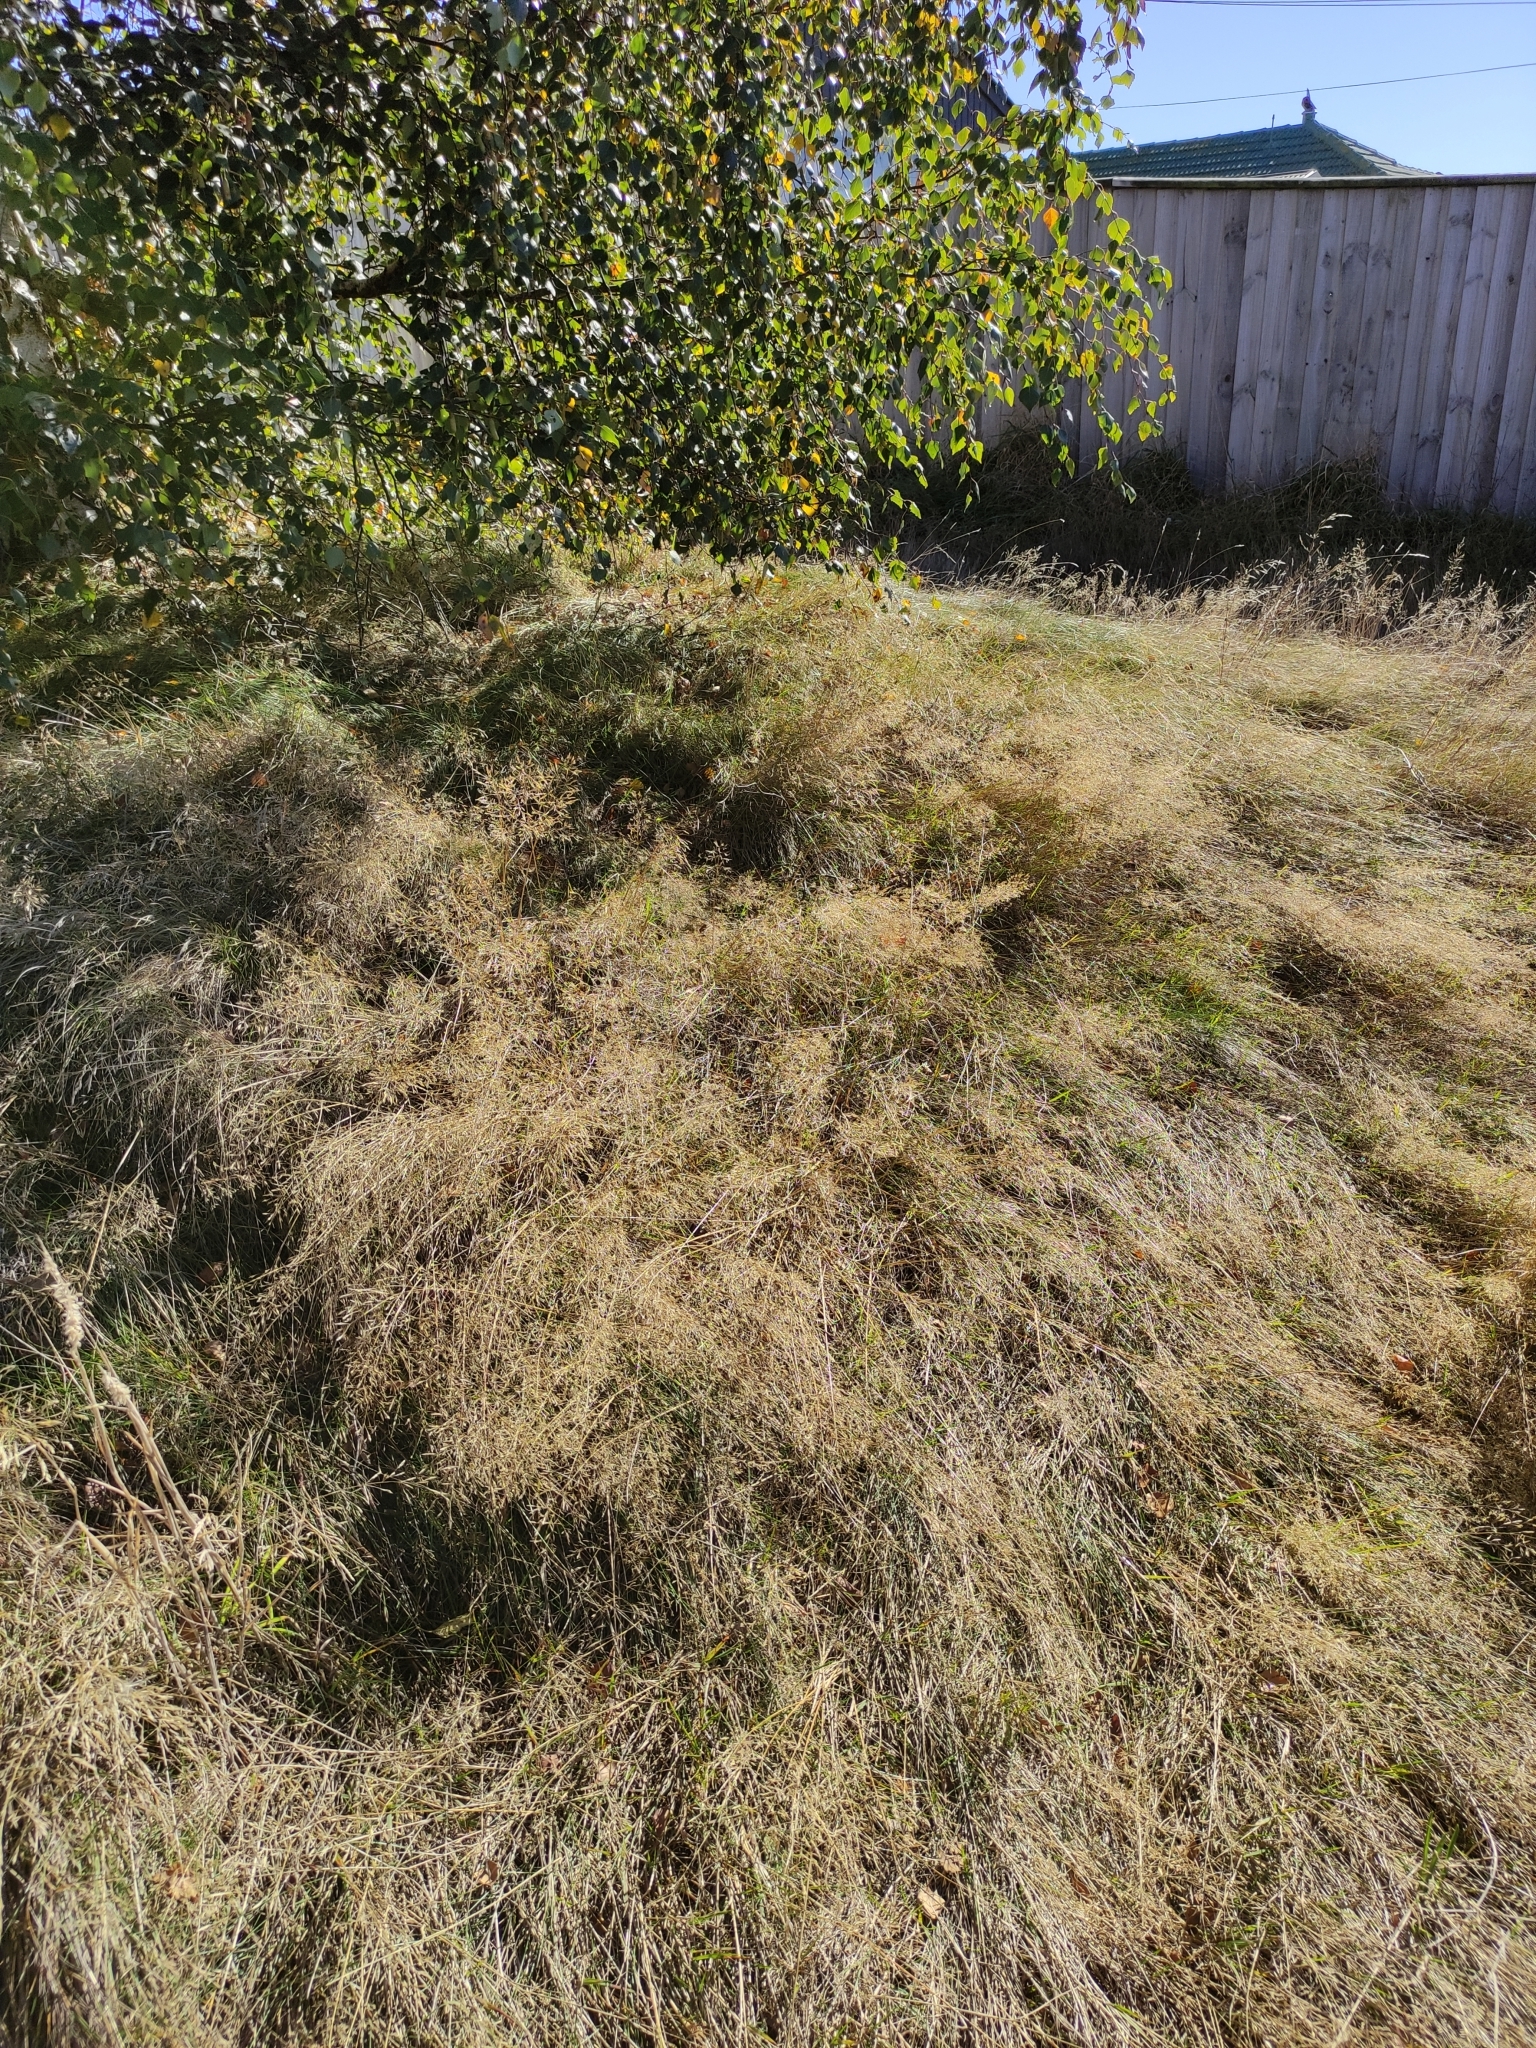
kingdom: Plantae
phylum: Tracheophyta
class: Liliopsida
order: Poales
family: Poaceae
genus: Agrostis
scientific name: Agrostis capillaris
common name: Colonial bentgrass
